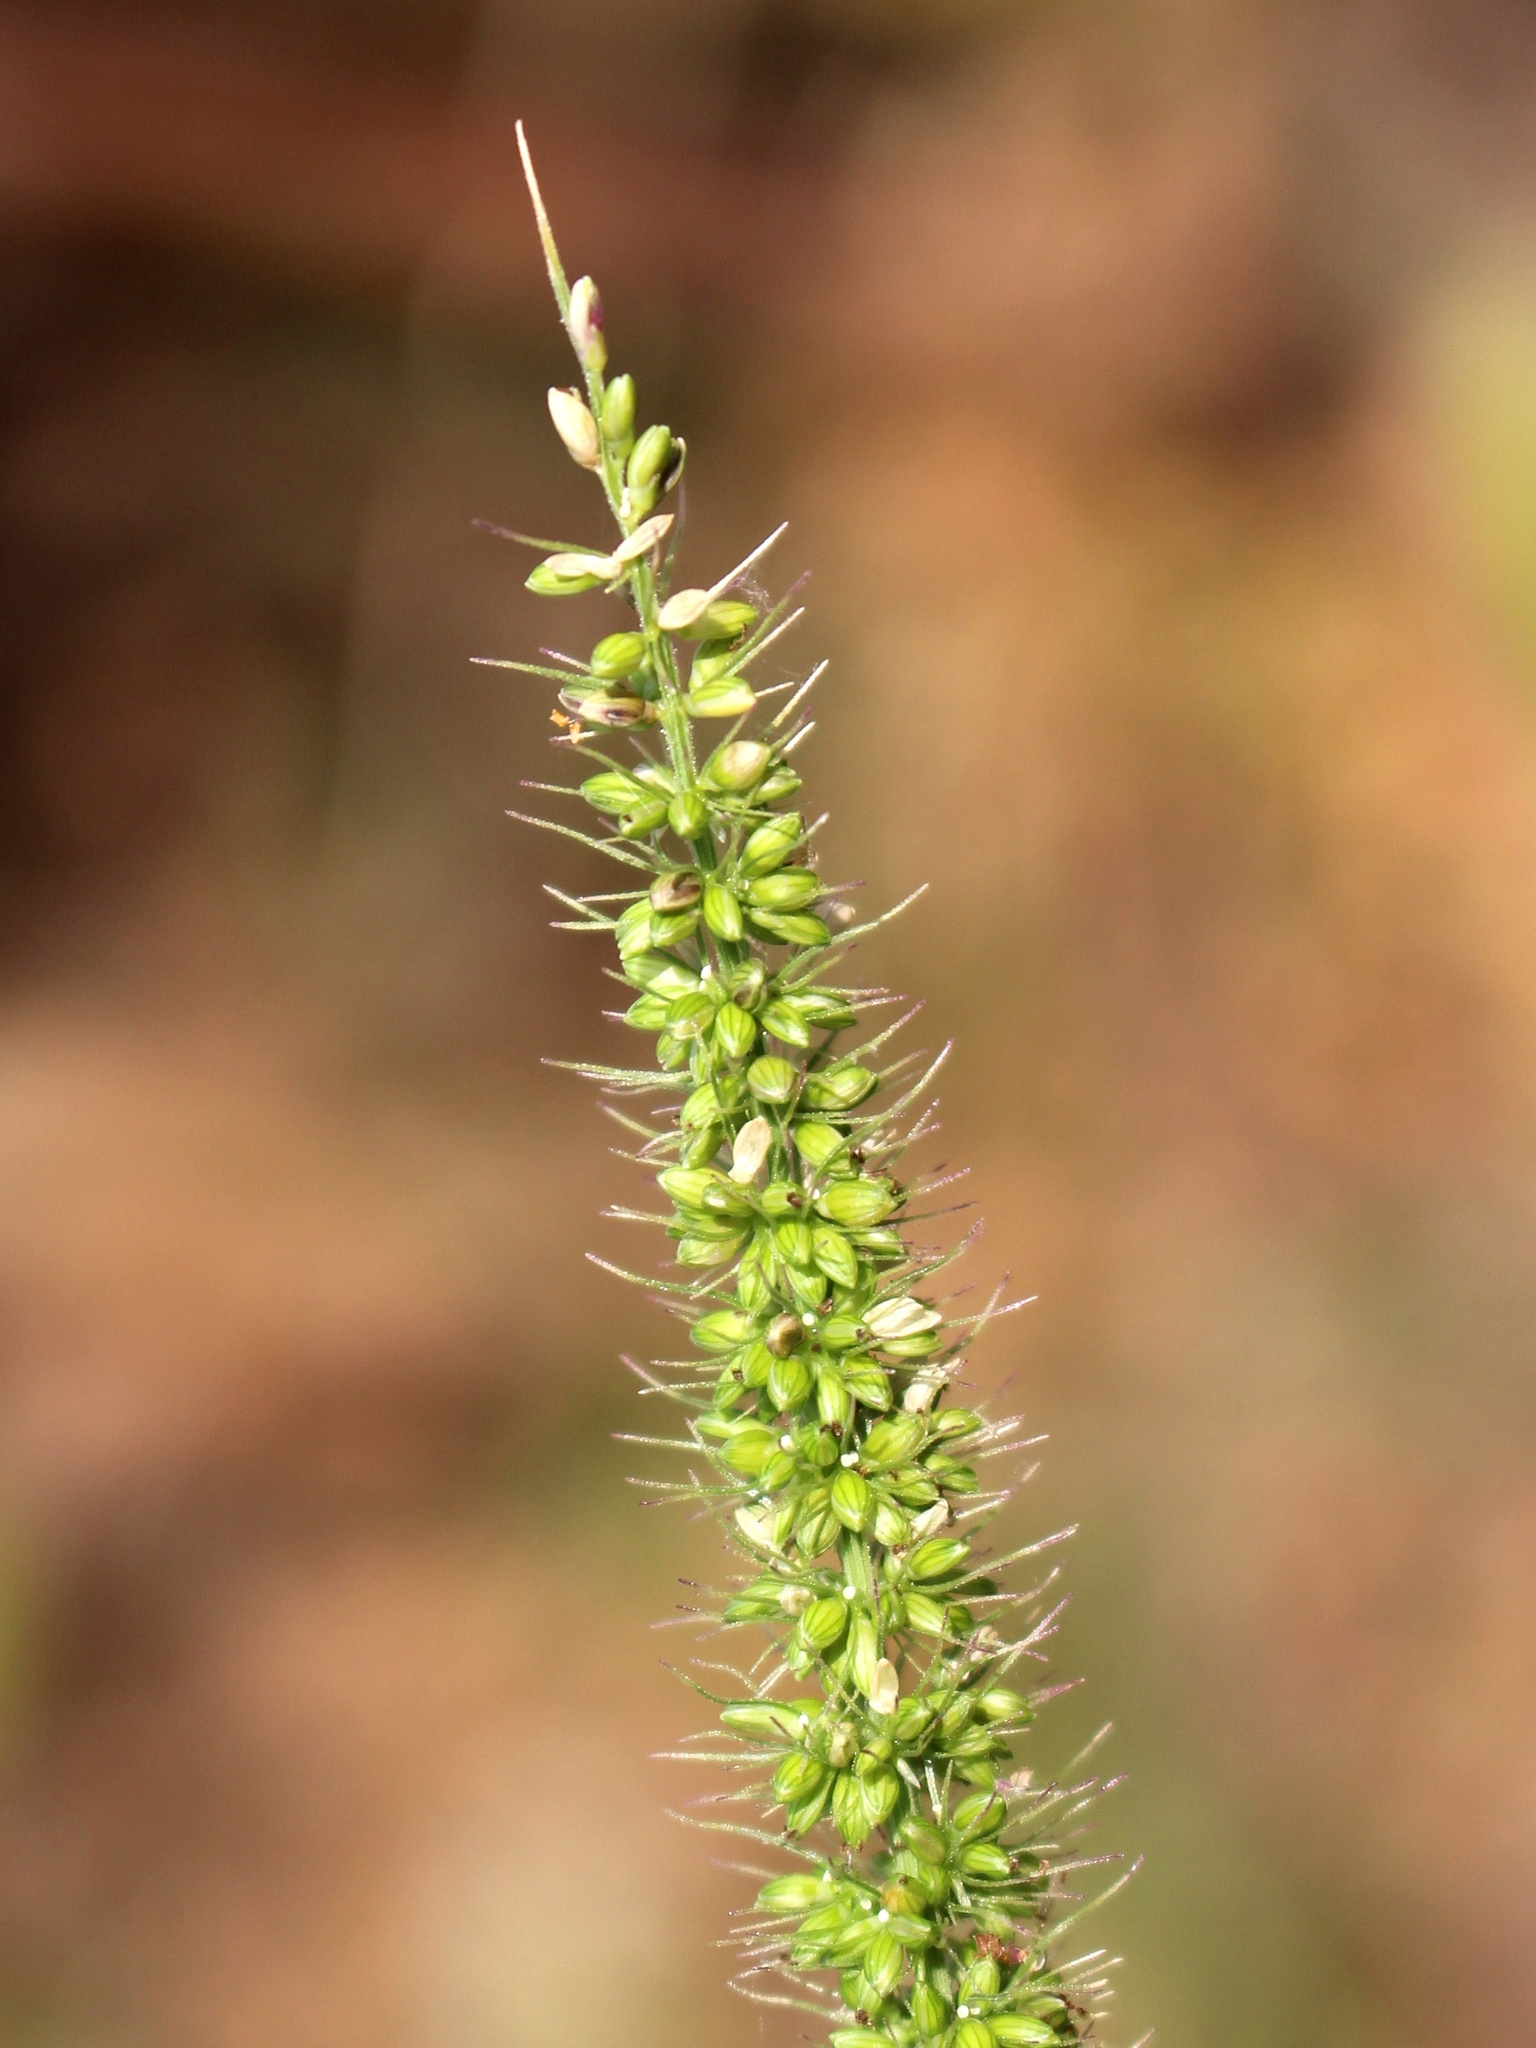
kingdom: Plantae
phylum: Tracheophyta
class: Liliopsida
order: Poales
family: Poaceae
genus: Setaria
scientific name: Setaria verticillata
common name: Hooked bristlegrass
